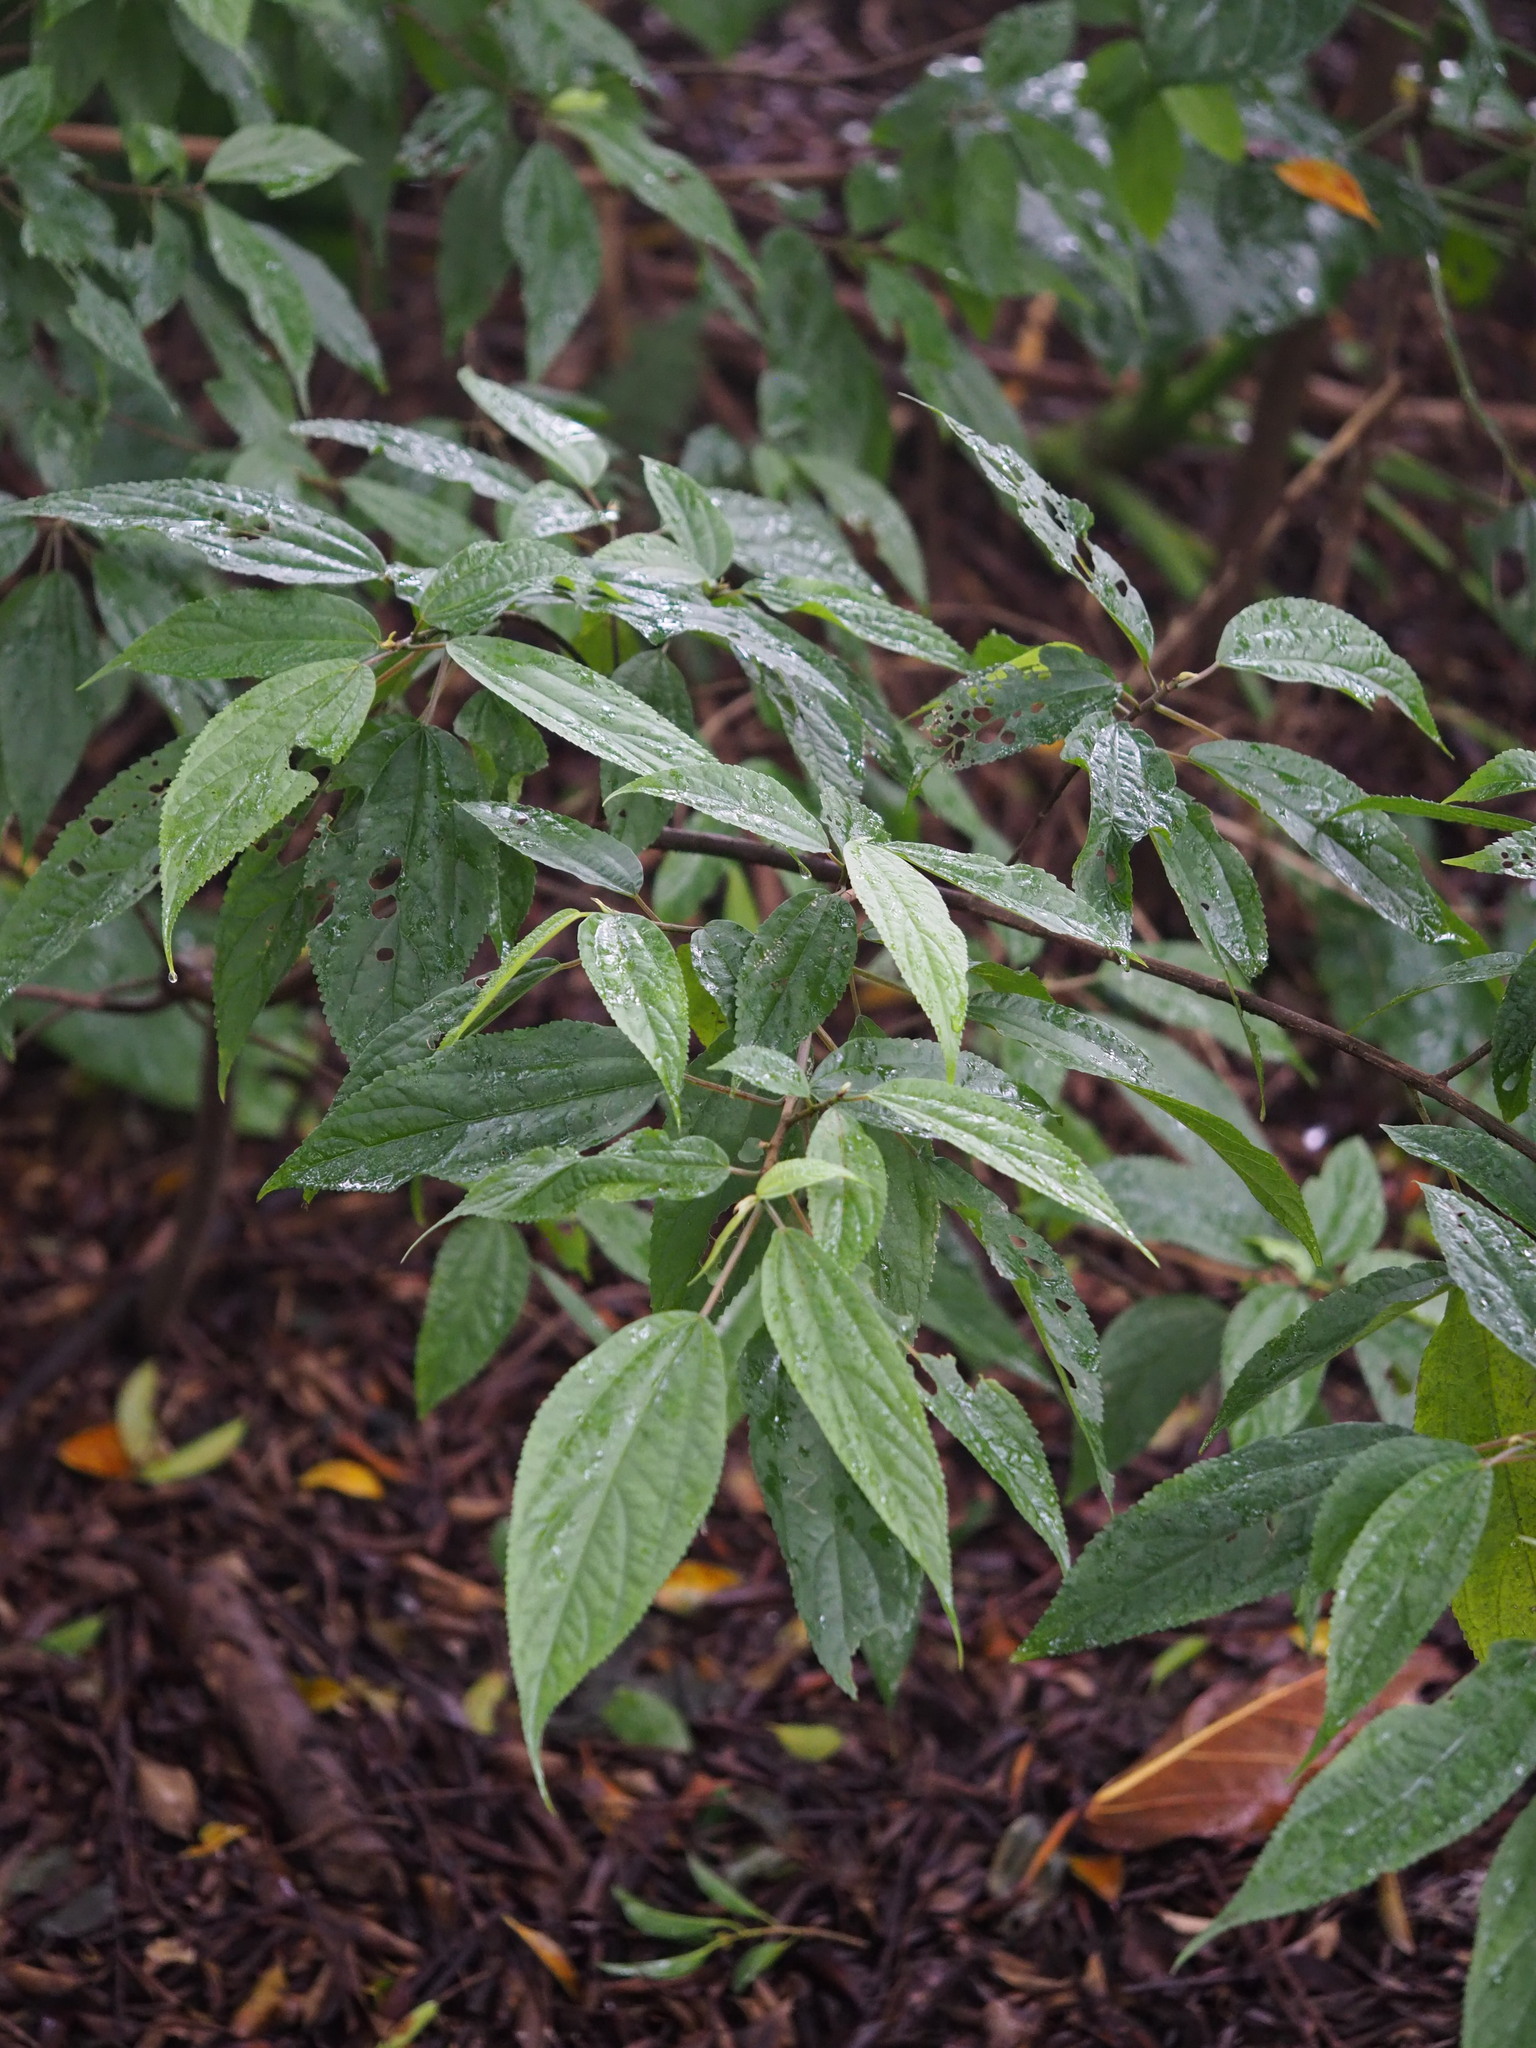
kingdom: Plantae
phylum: Tracheophyta
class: Magnoliopsida
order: Rosales
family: Urticaceae
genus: Oreocnide
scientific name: Oreocnide pedunculata
